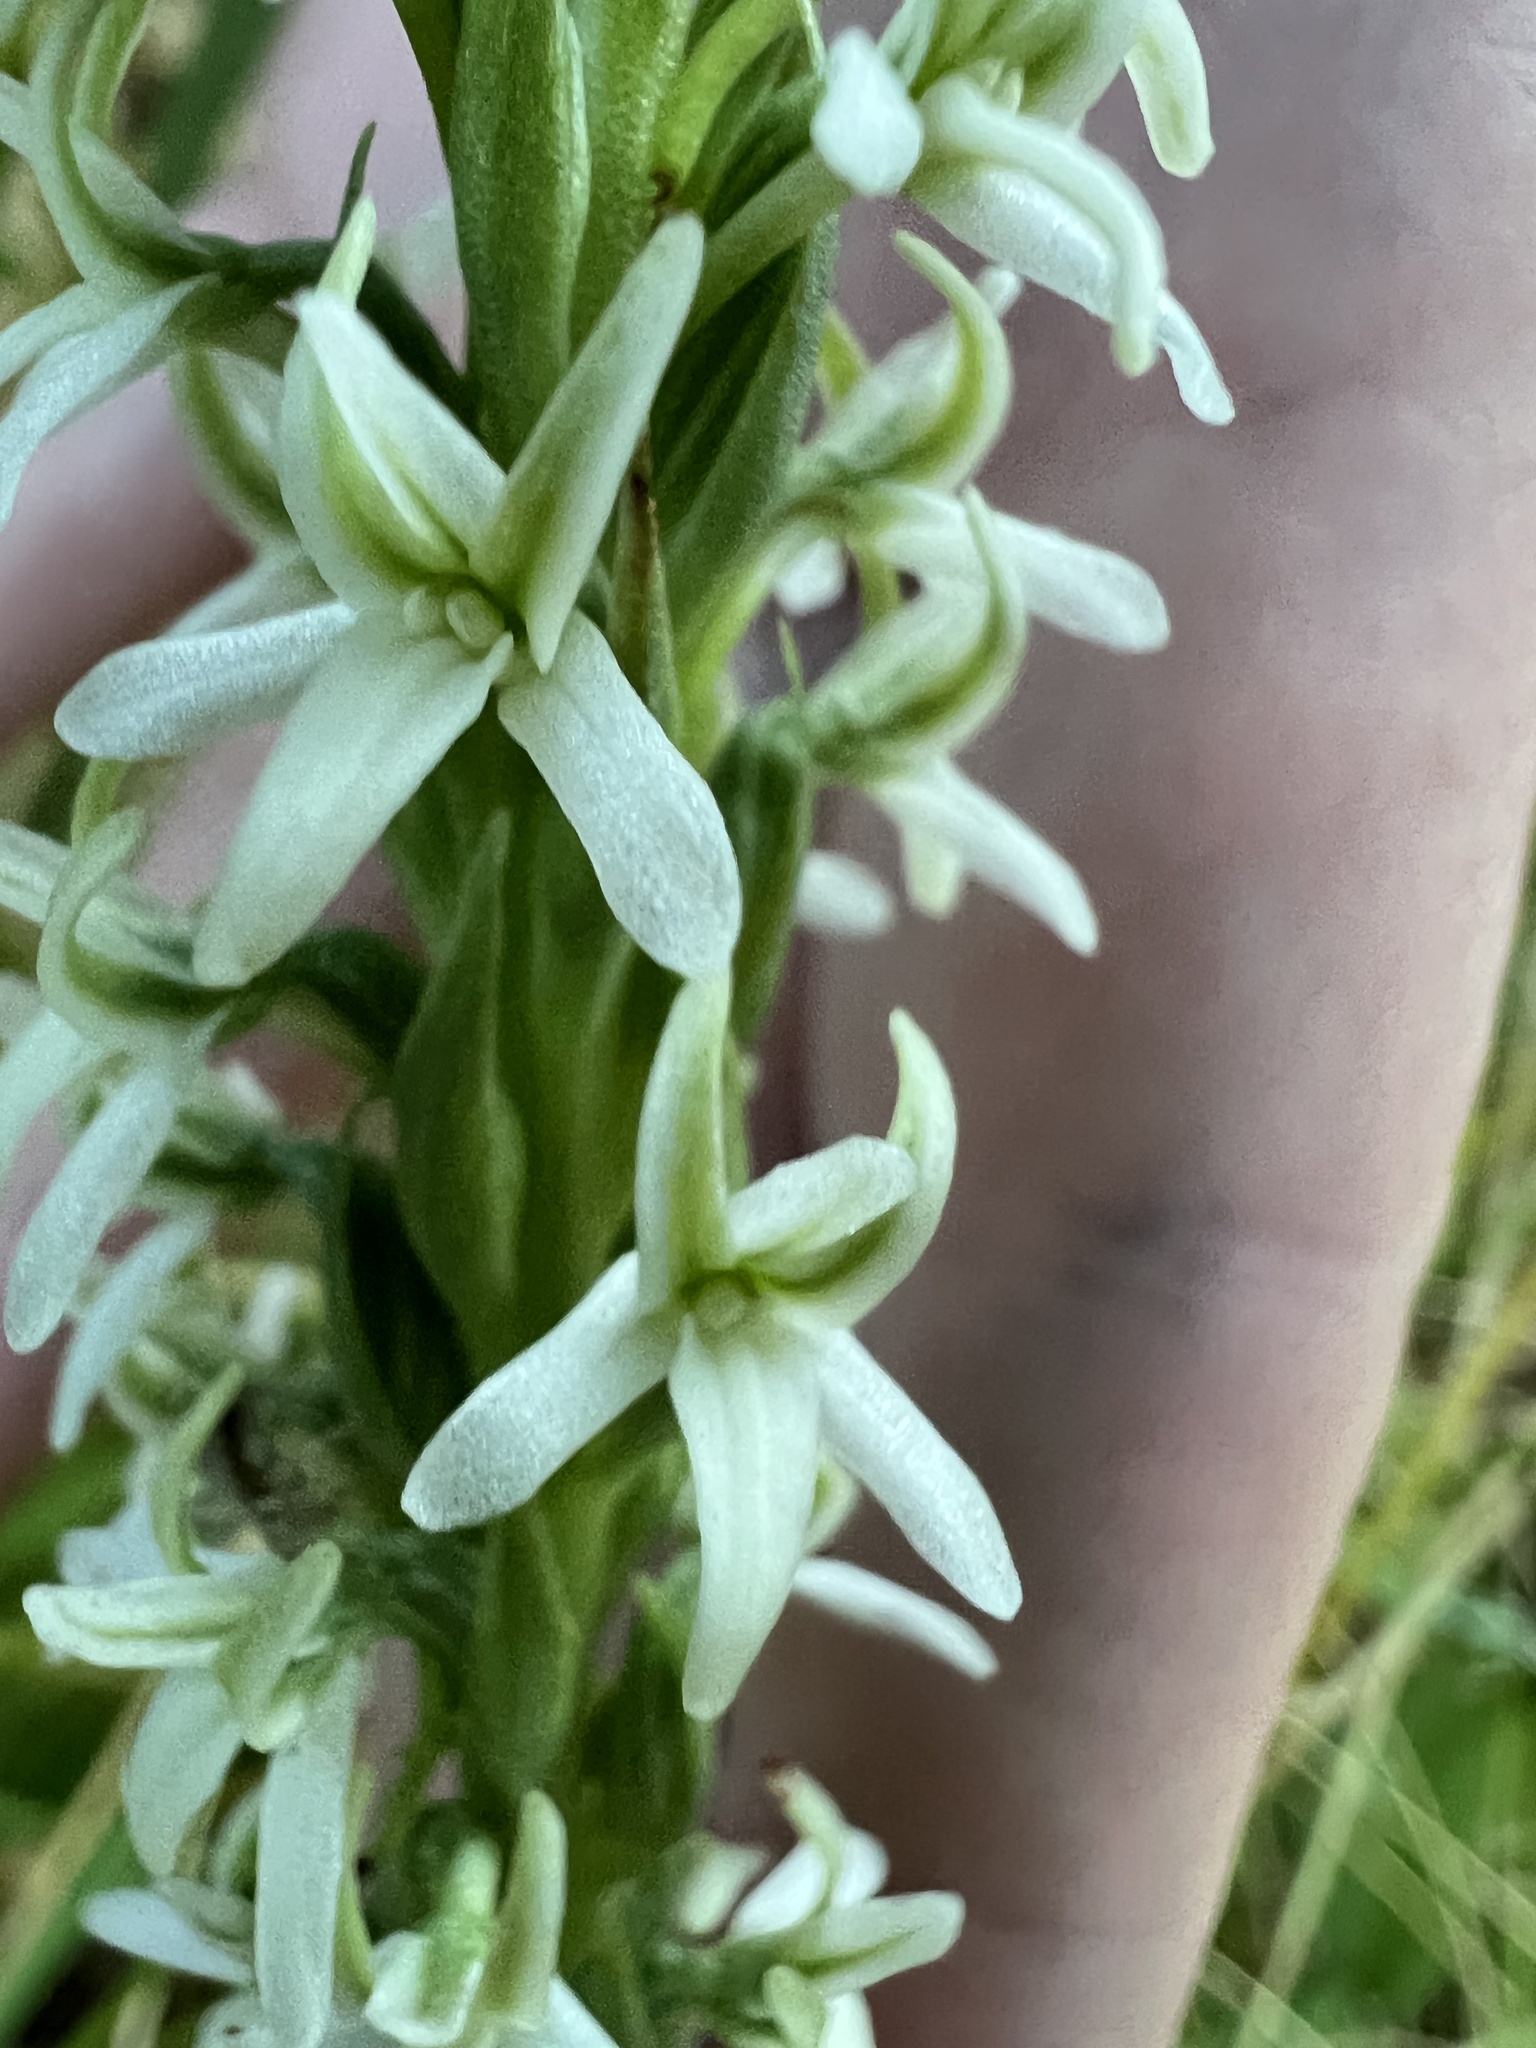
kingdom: Plantae
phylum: Tracheophyta
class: Liliopsida
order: Asparagales
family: Orchidaceae
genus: Platanthera
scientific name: Platanthera elegans
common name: Coast piperia
